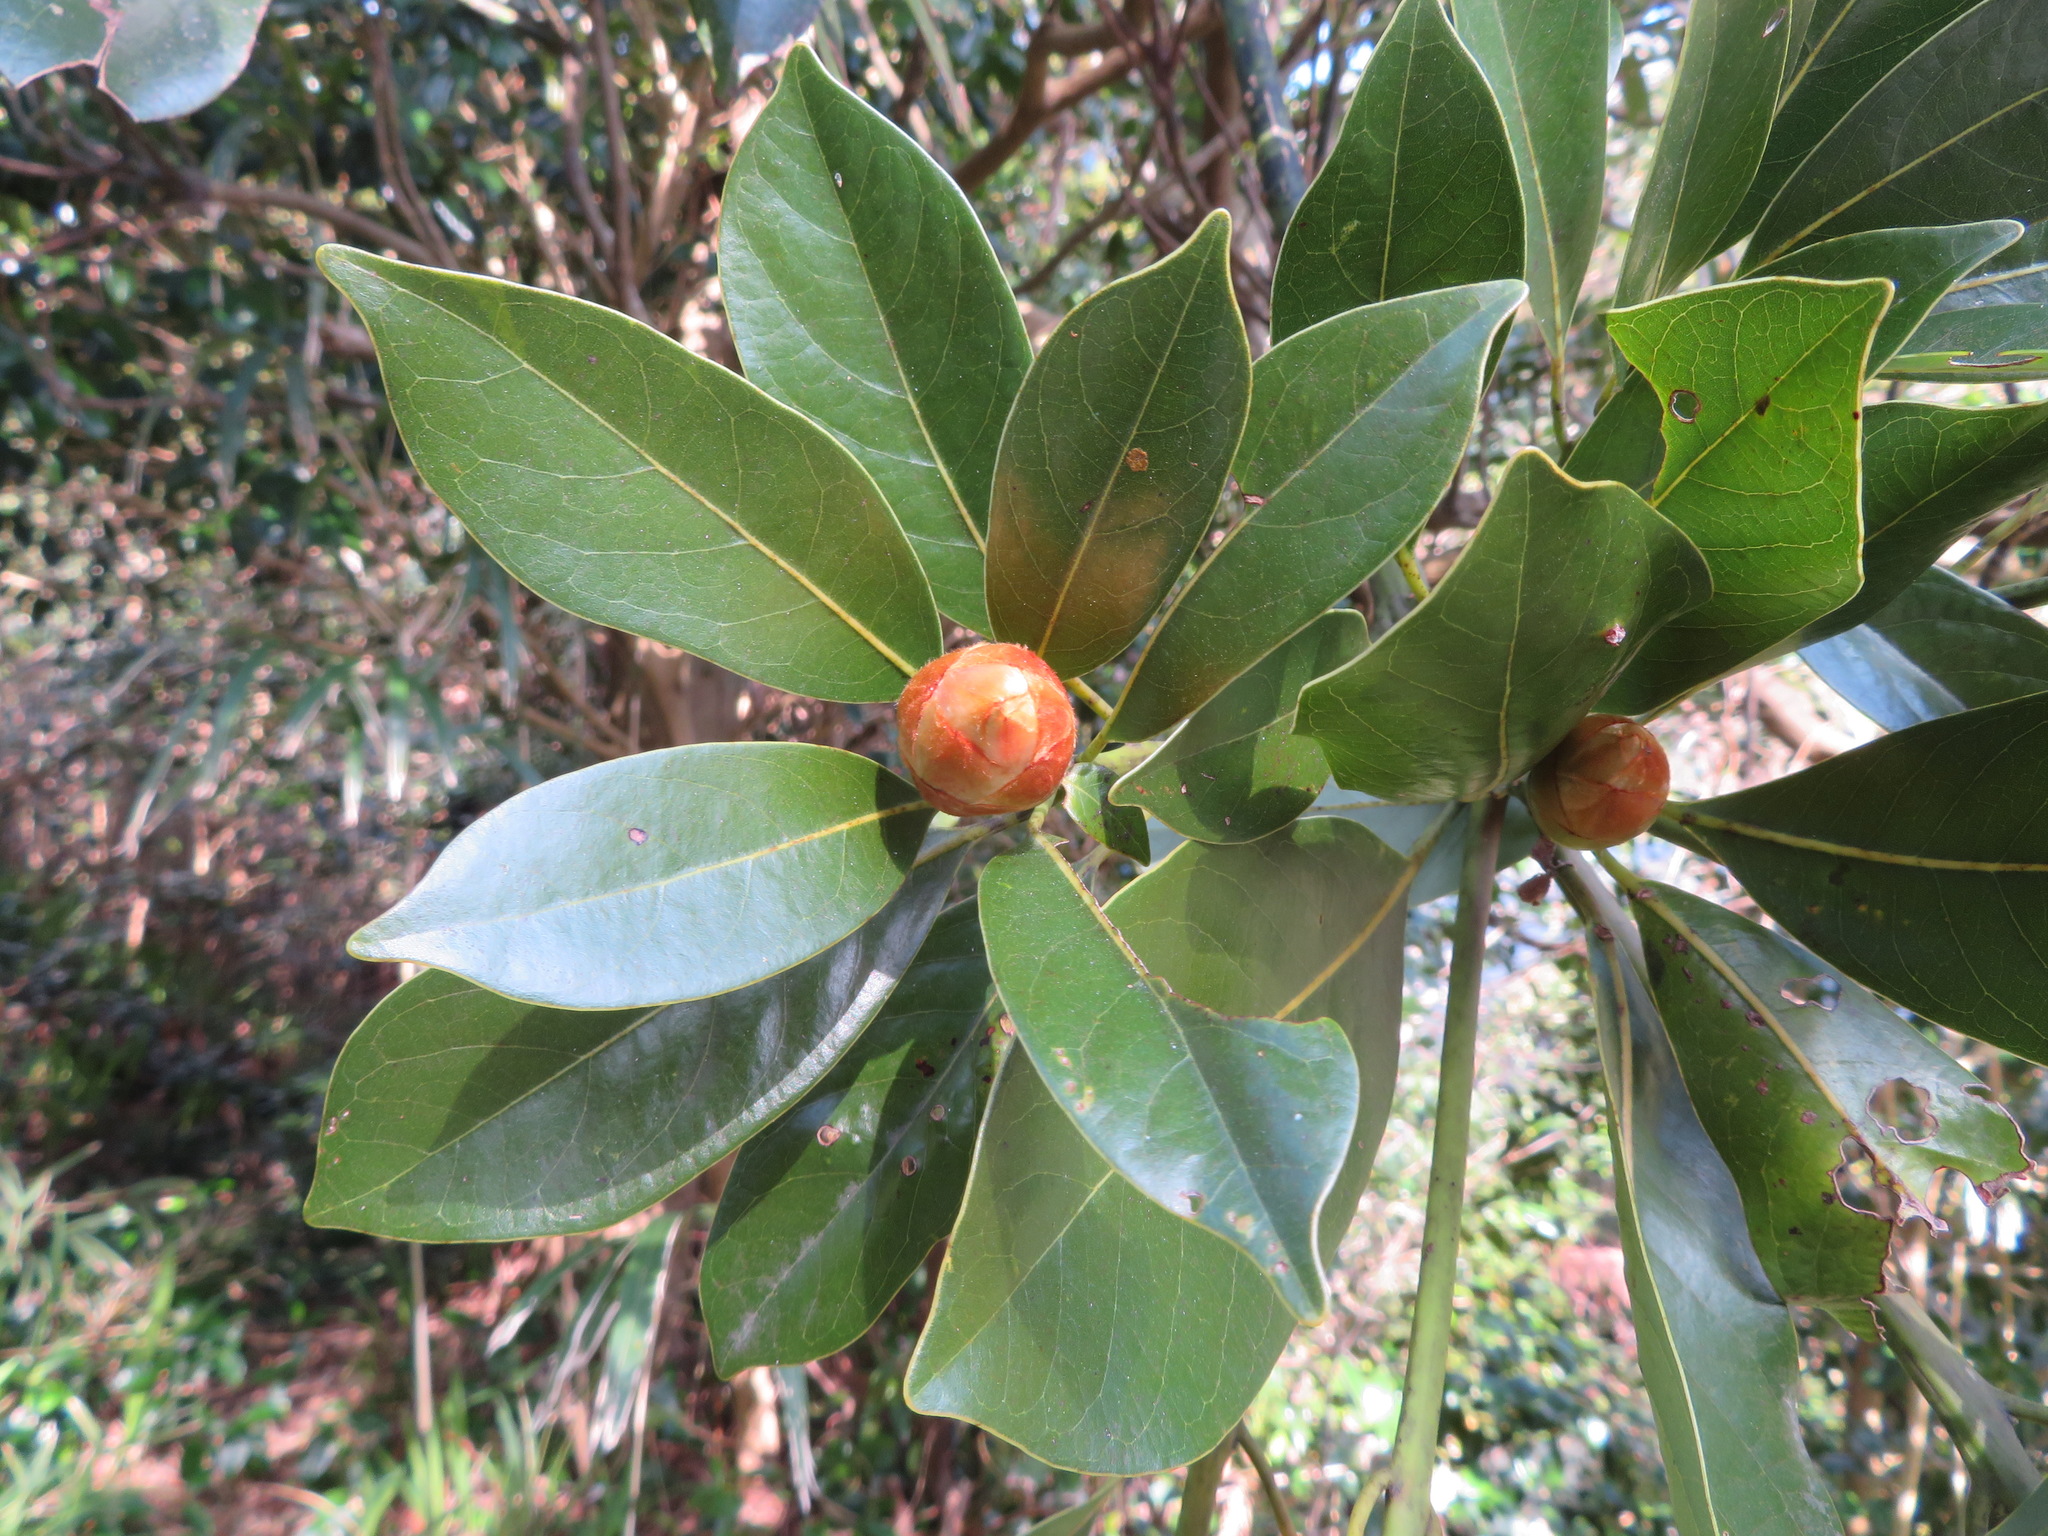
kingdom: Plantae
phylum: Tracheophyta
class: Magnoliopsida
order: Laurales
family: Lauraceae
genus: Machilus
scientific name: Machilus thunbergii
